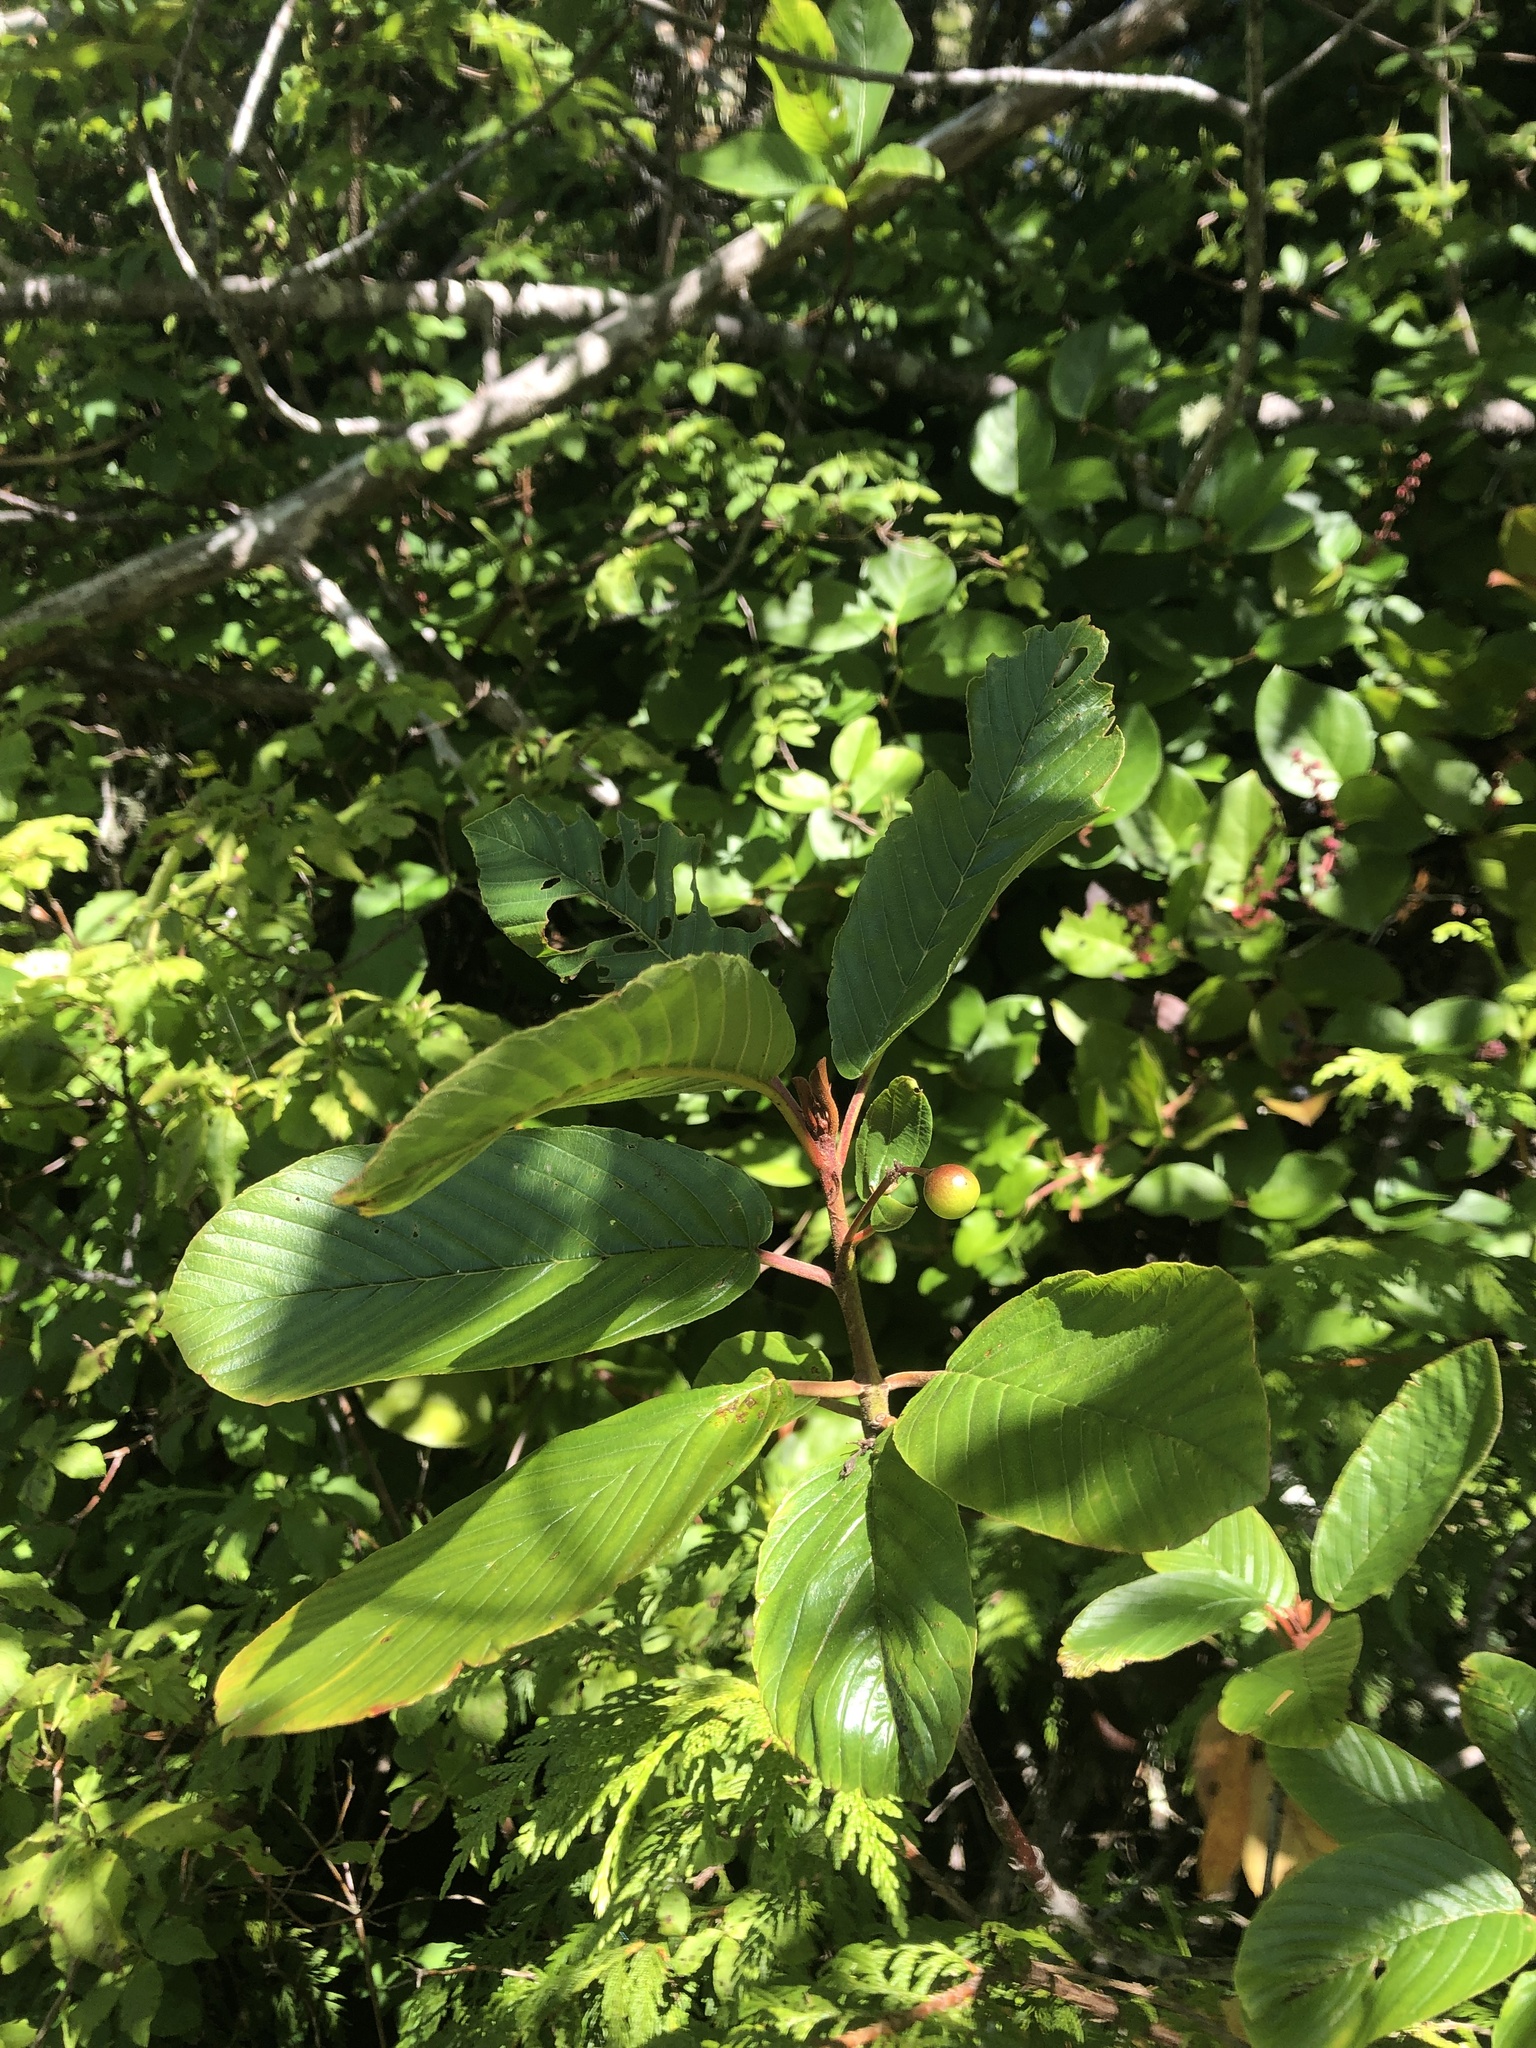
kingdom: Plantae
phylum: Tracheophyta
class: Magnoliopsida
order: Rosales
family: Rhamnaceae
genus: Frangula
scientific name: Frangula purshiana
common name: Cascara buckthorn
